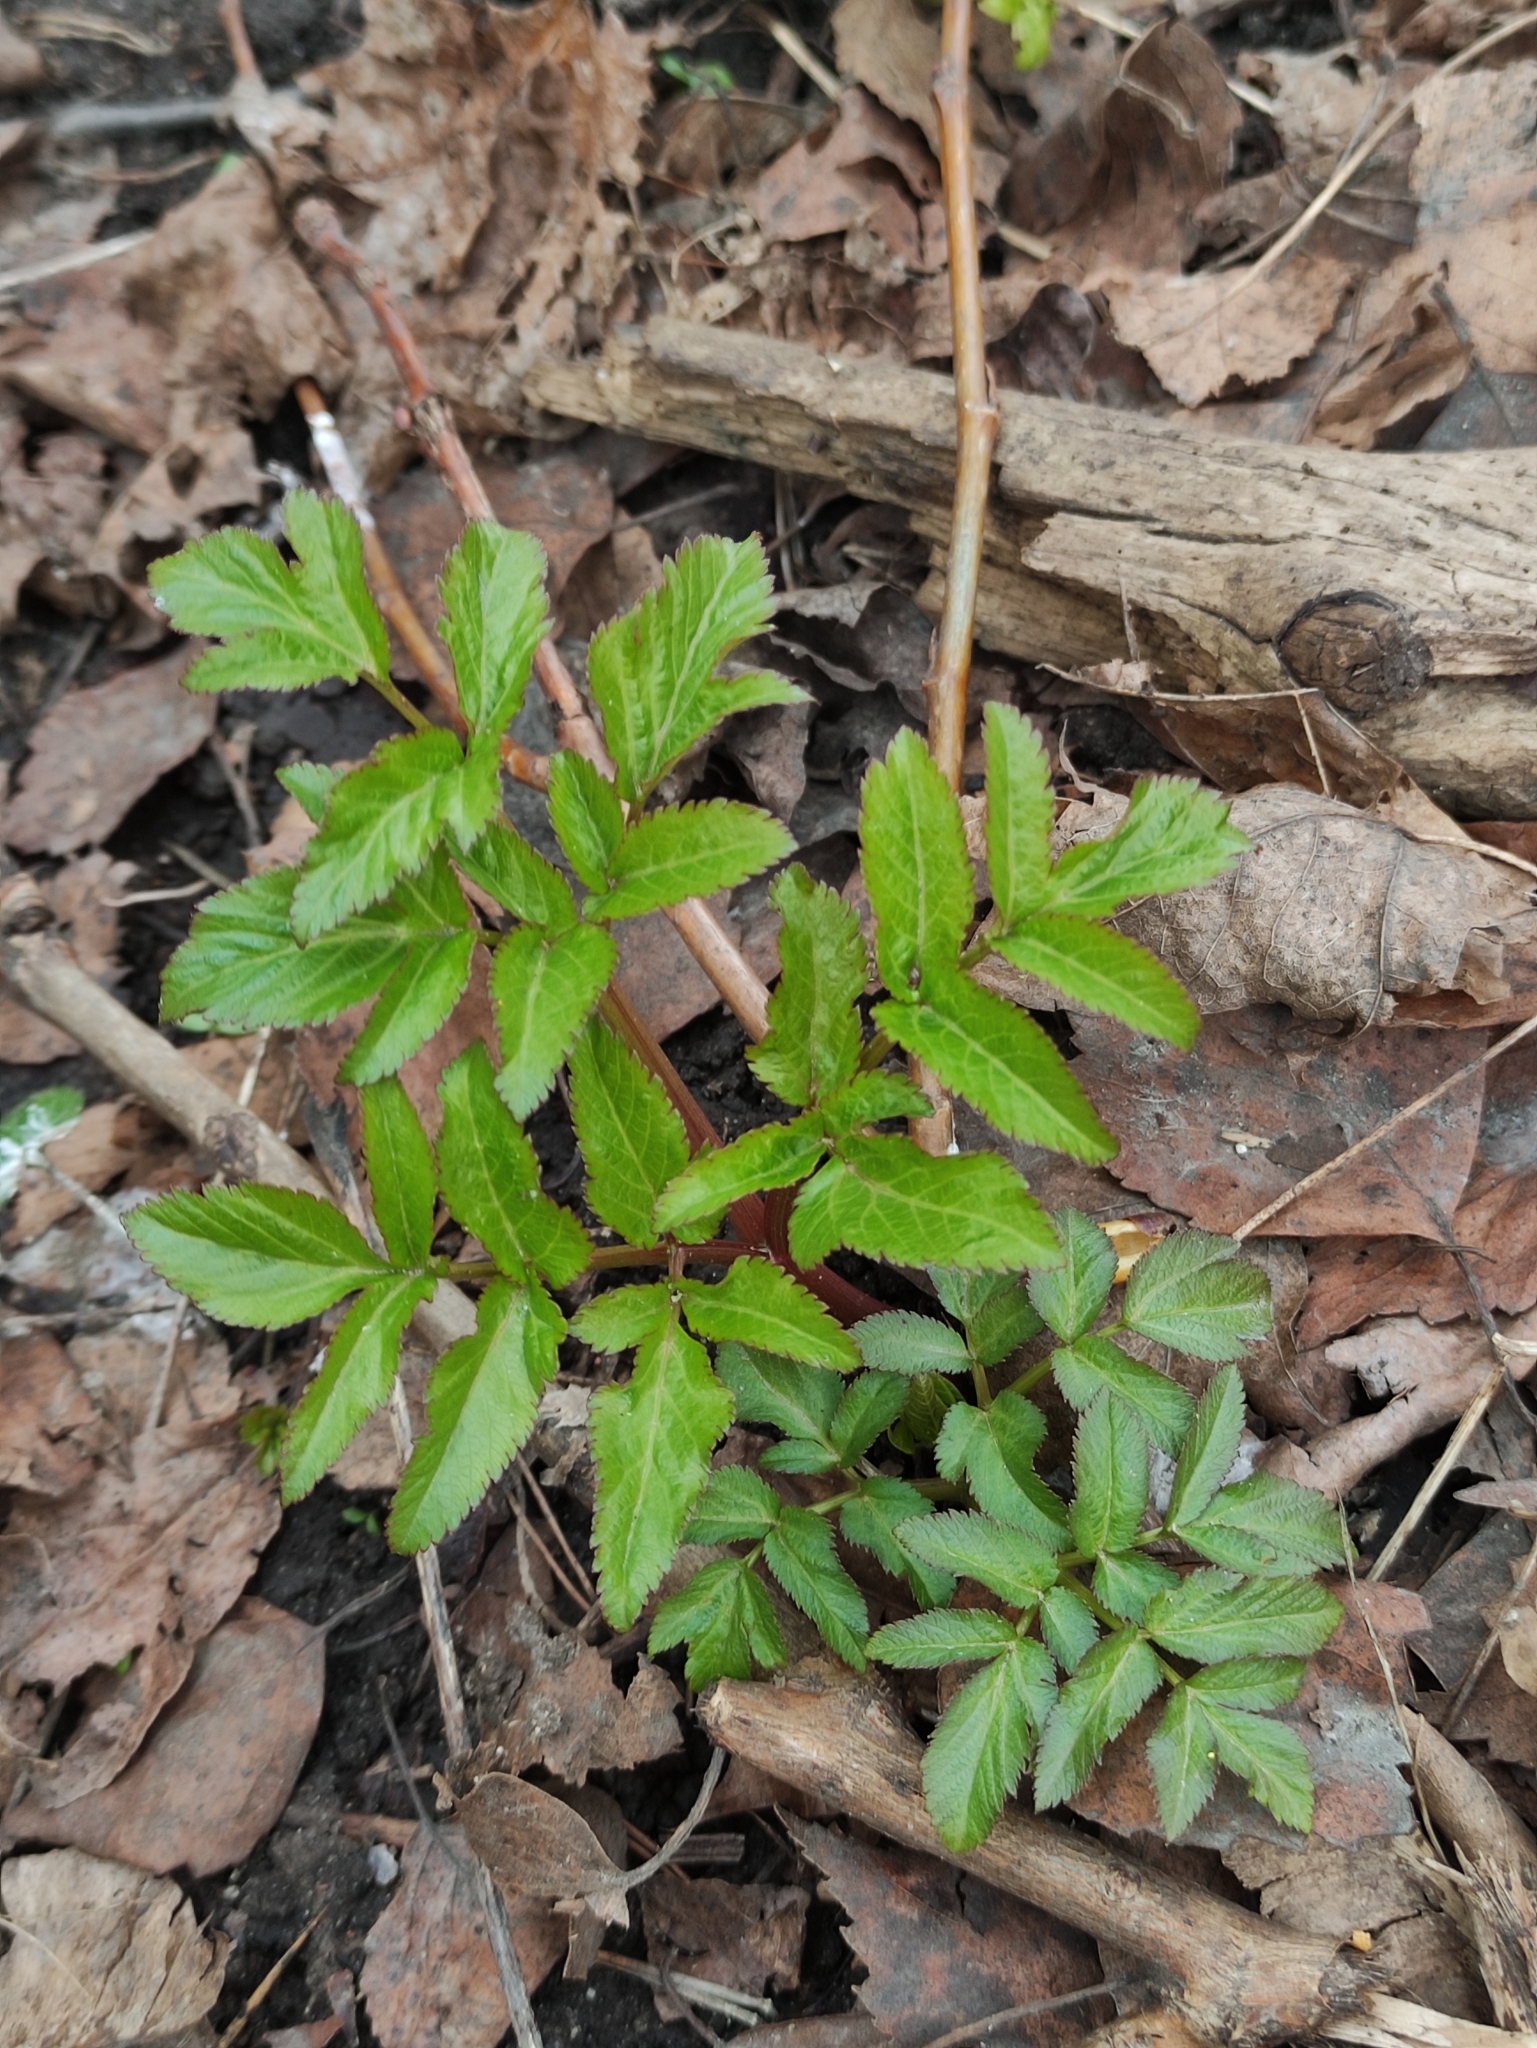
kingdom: Plantae
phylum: Tracheophyta
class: Magnoliopsida
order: Apiales
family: Apiaceae
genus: Angelica
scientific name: Angelica sylvestris
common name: Wild angelica
